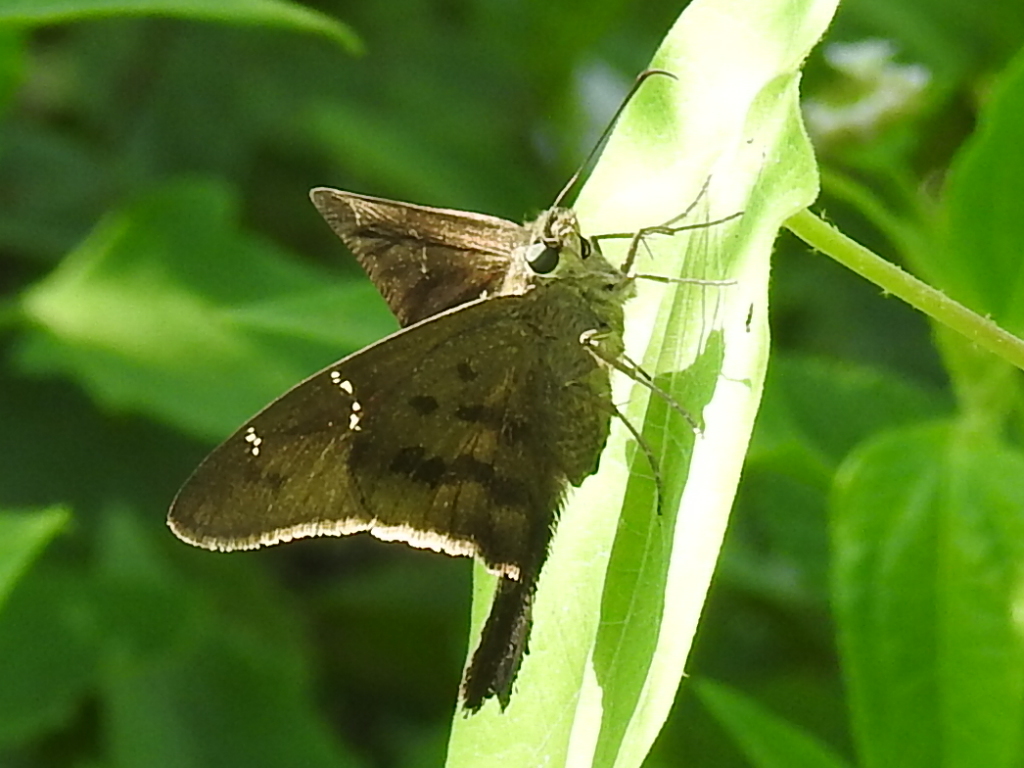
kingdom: Animalia
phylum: Arthropoda
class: Insecta
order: Lepidoptera
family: Hesperiidae
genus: Urbanus
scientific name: Urbanus procne
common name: Brown longtail
